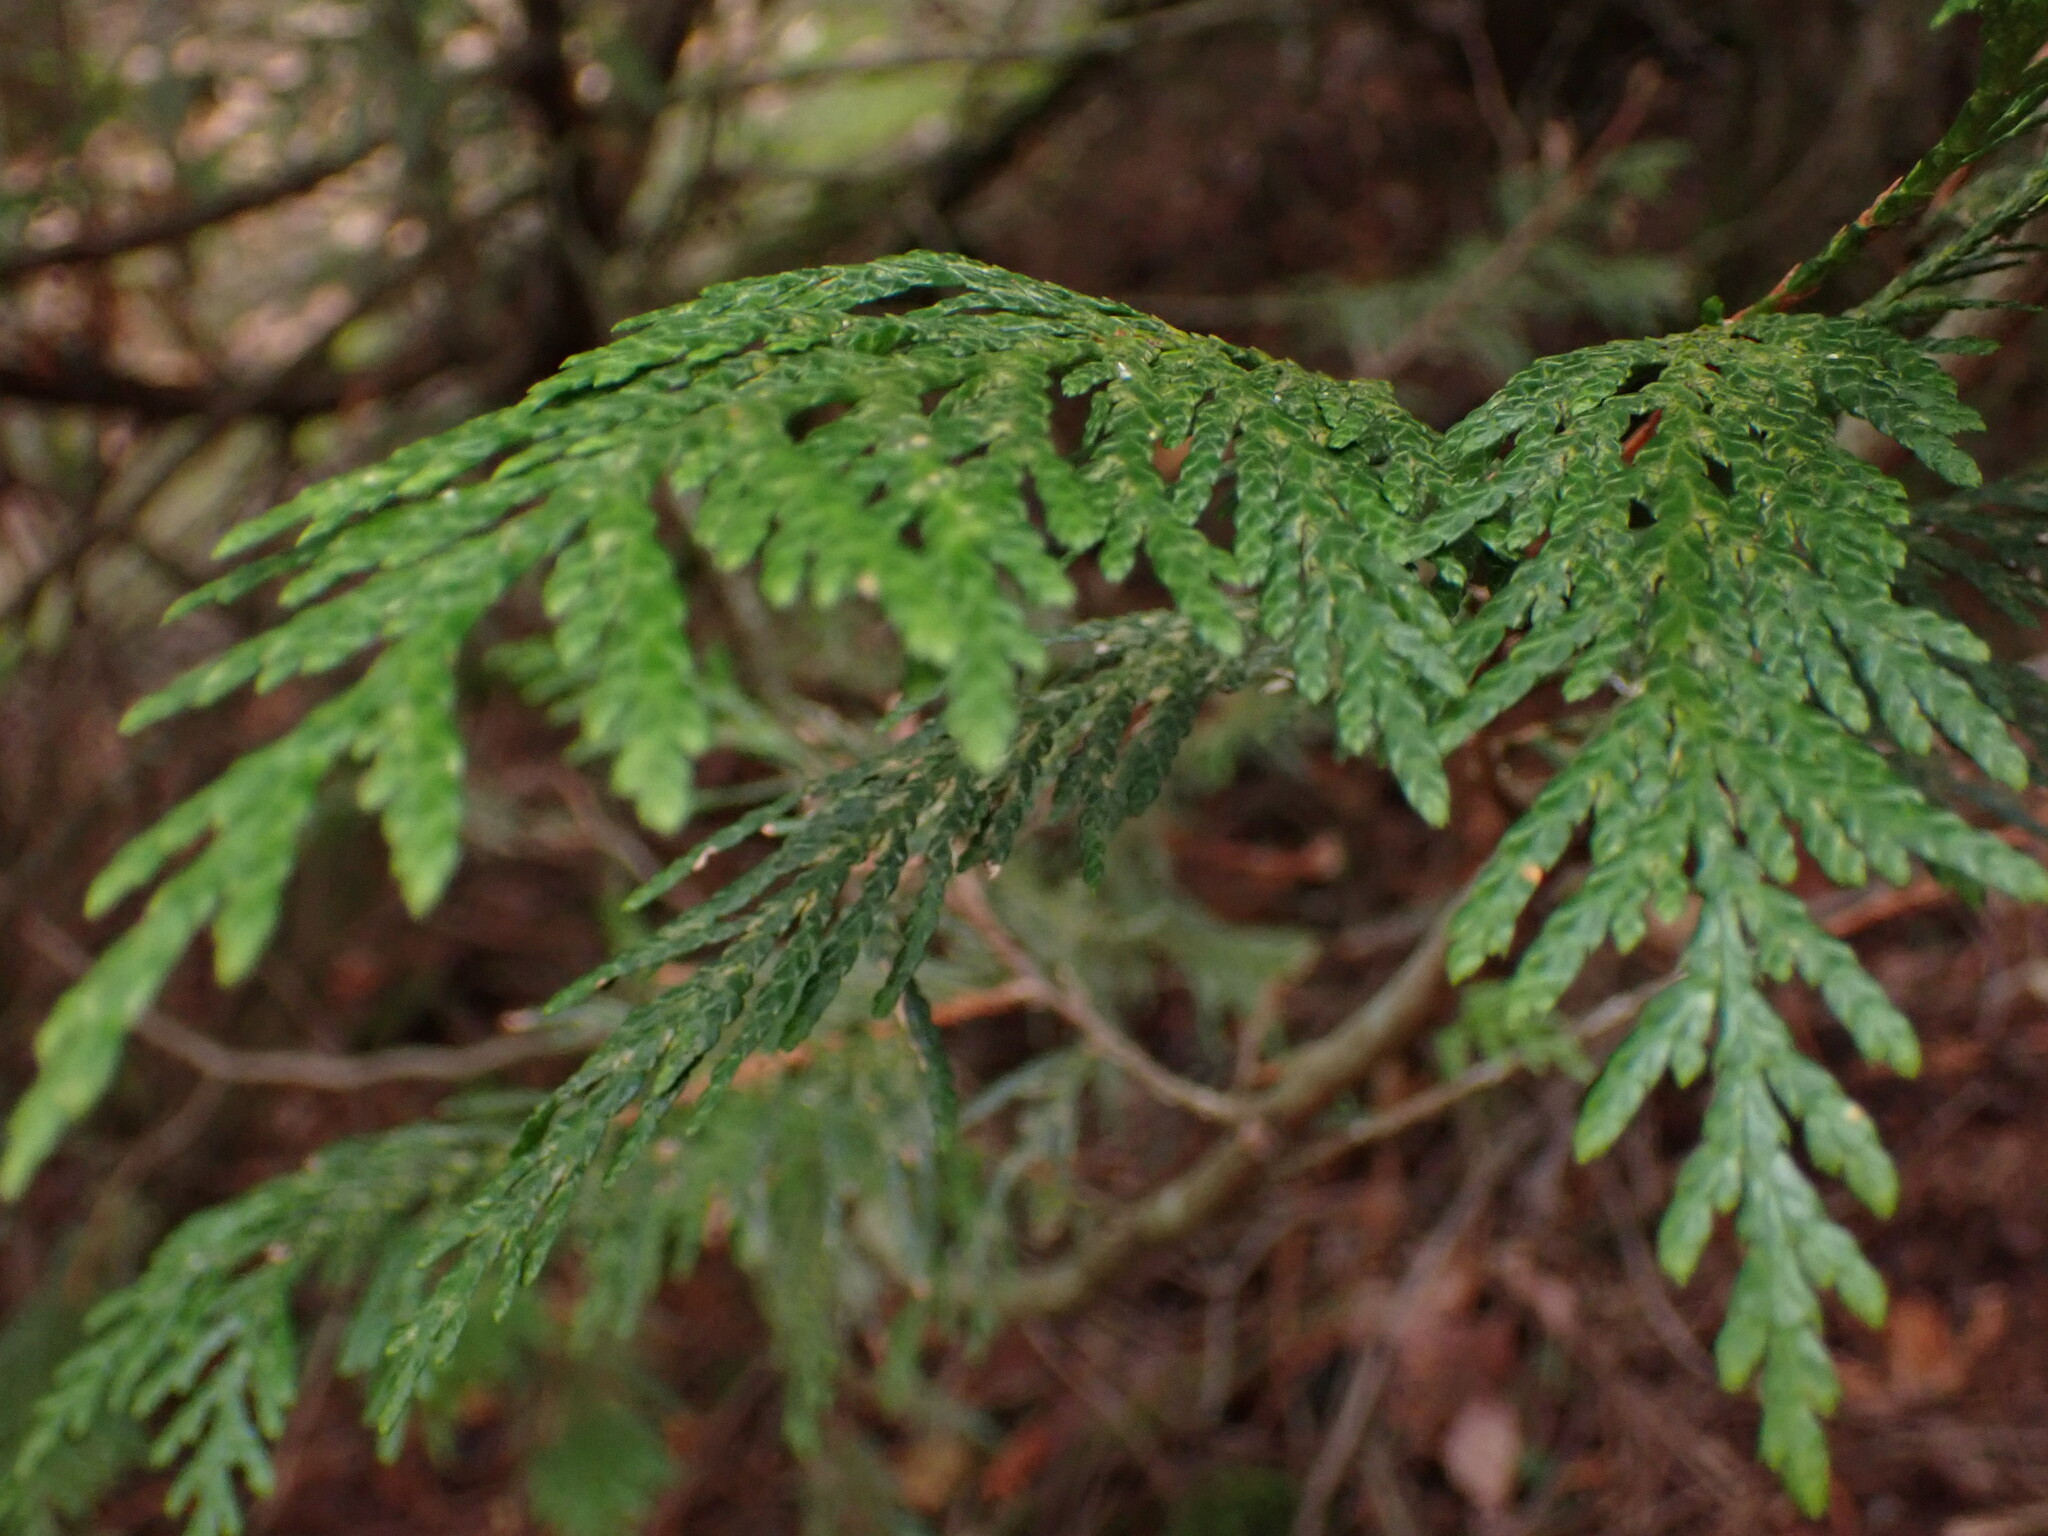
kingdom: Plantae
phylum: Tracheophyta
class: Pinopsida
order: Pinales
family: Cupressaceae
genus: Thuja
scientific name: Thuja plicata
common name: Western red-cedar
